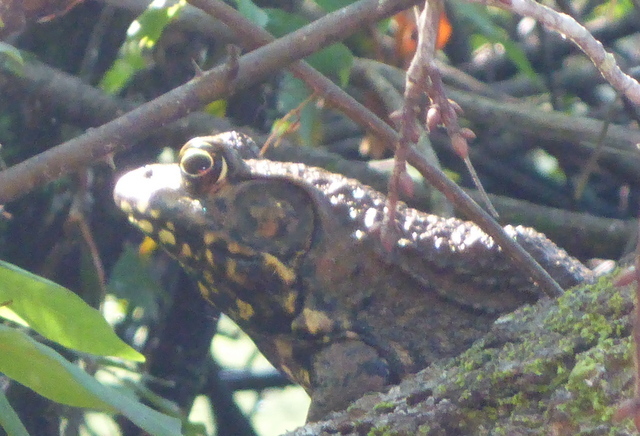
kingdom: Animalia
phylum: Chordata
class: Amphibia
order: Anura
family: Ranidae
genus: Lithobates
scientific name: Lithobates heckscheri
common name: River frog
